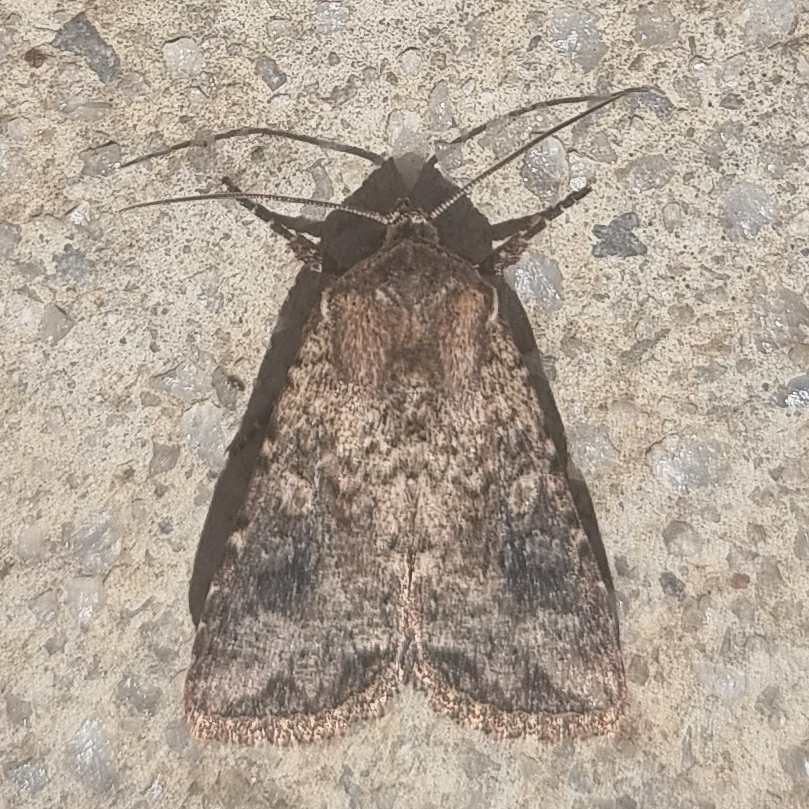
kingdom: Animalia
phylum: Arthropoda
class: Insecta
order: Lepidoptera
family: Noctuidae
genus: Mythimna
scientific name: Mythimna languida
